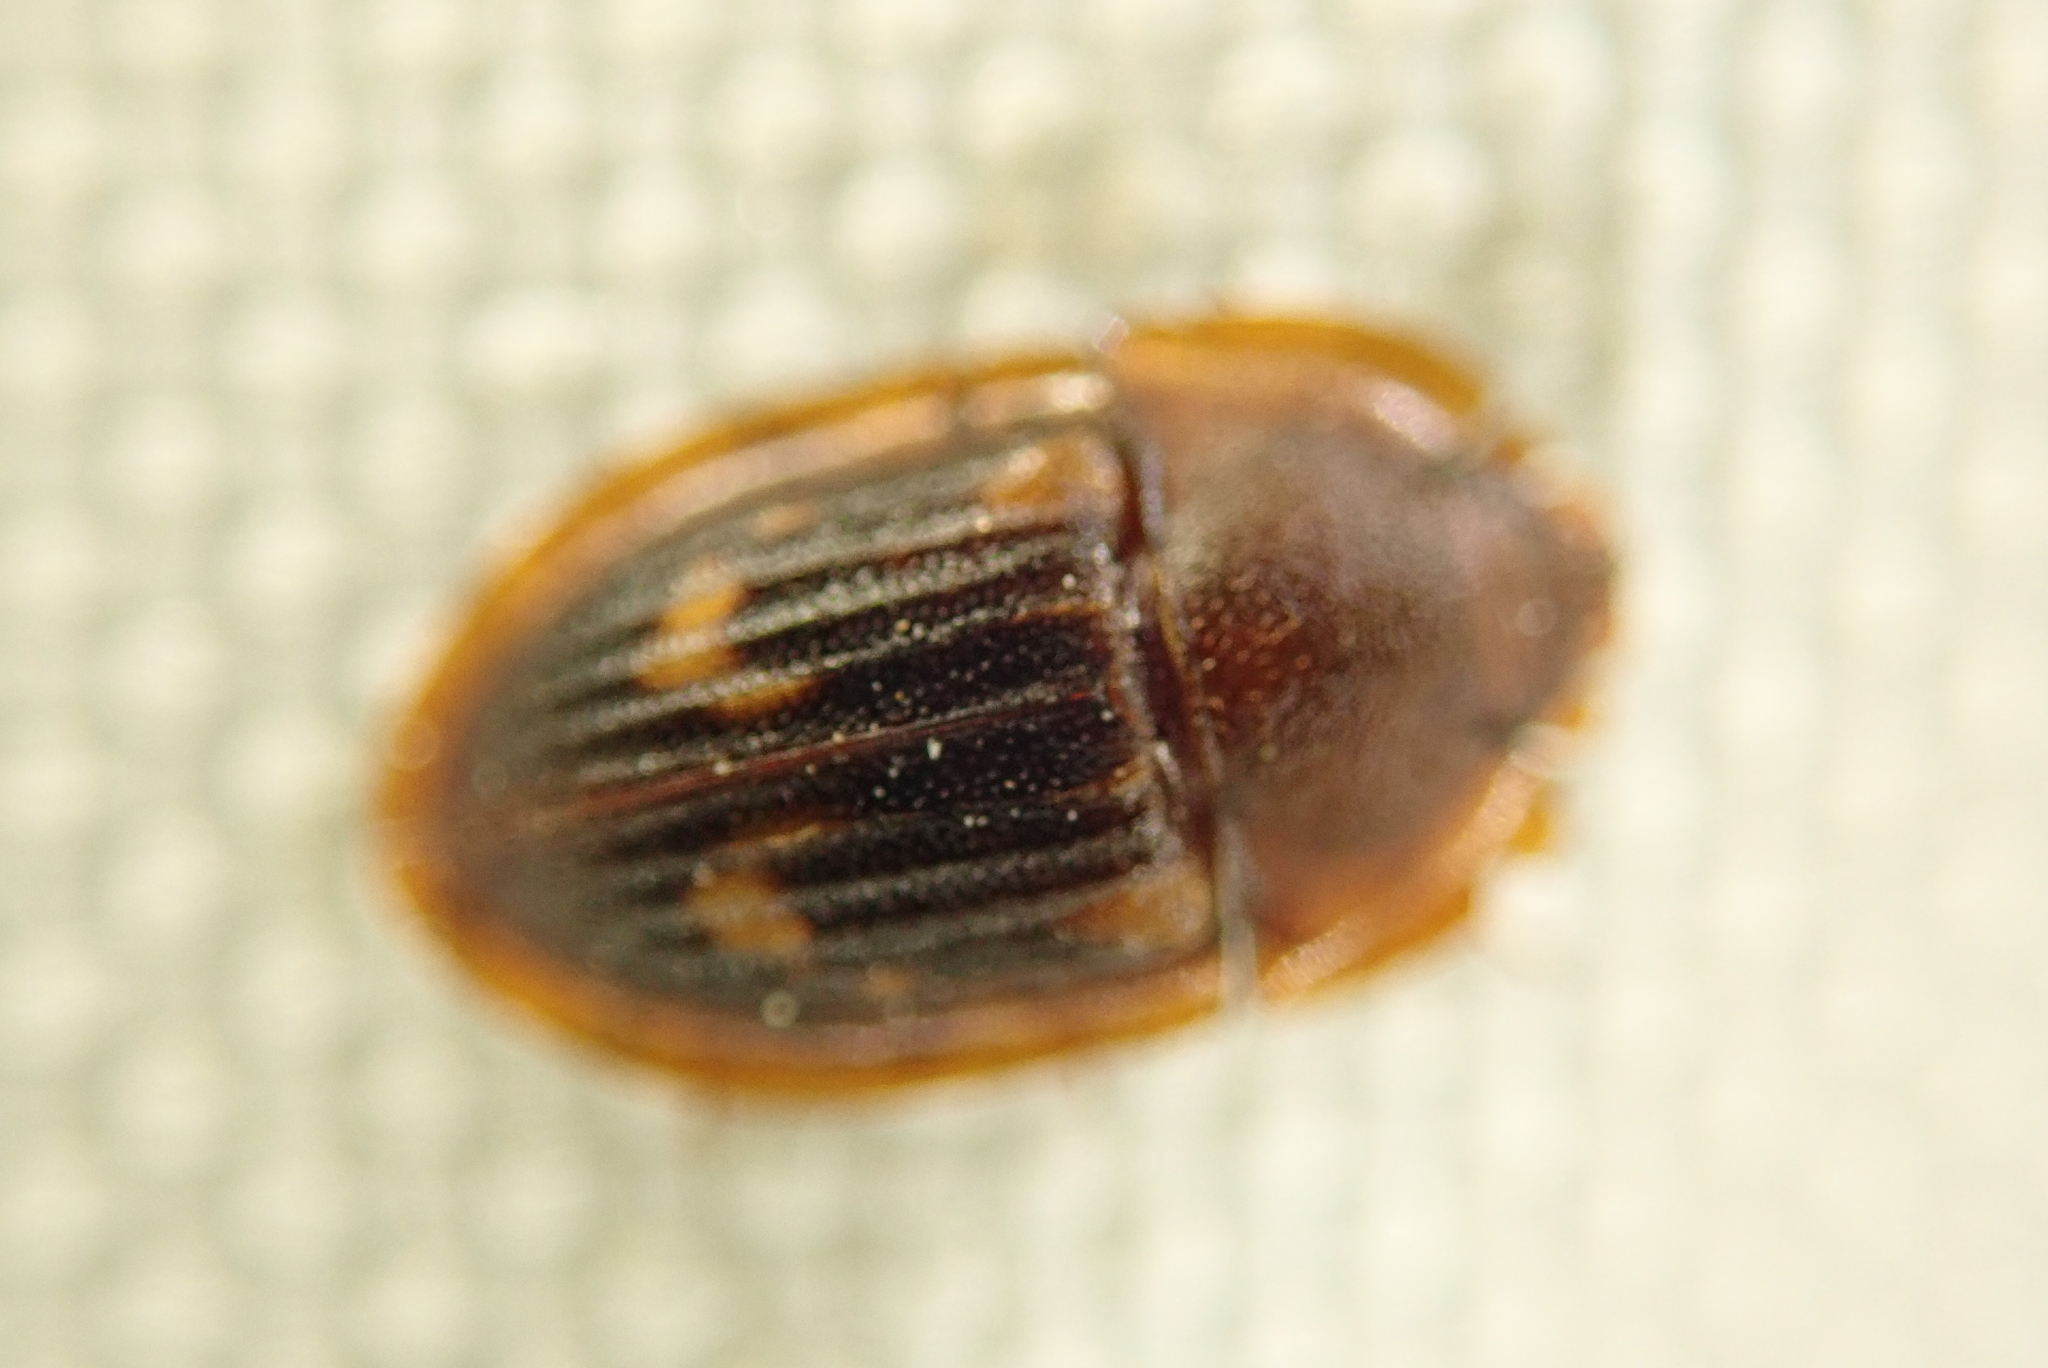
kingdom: Animalia
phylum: Arthropoda
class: Insecta
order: Coleoptera
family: Nitidulidae
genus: Amphotis
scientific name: Amphotis marginata
